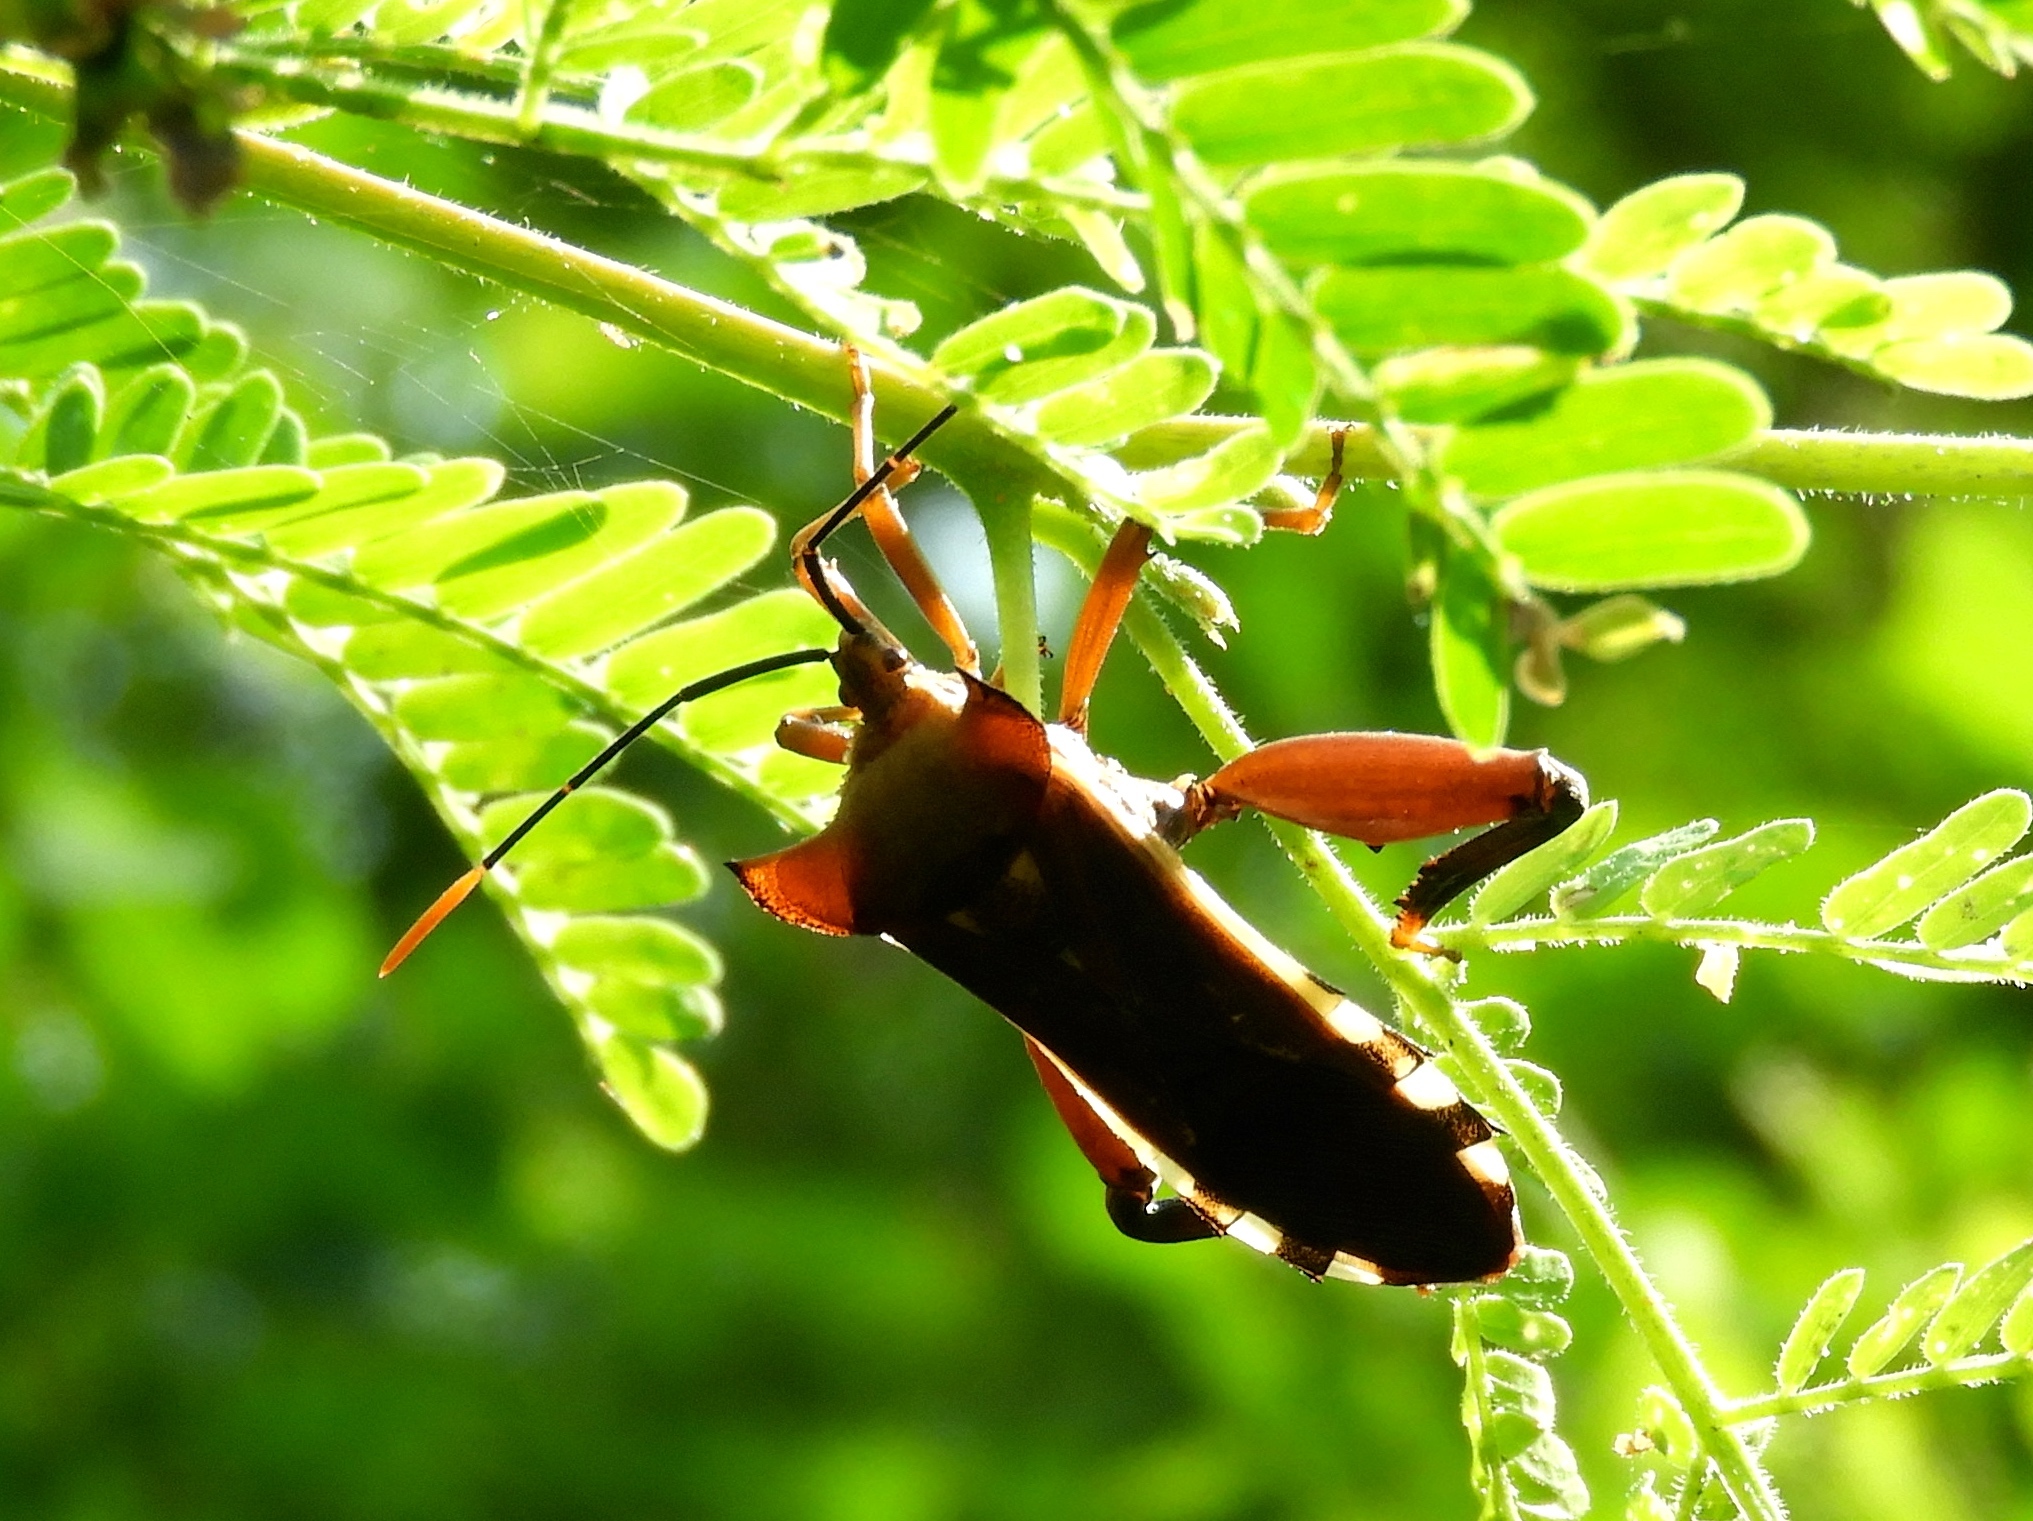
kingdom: Animalia
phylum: Arthropoda
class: Insecta
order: Hemiptera
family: Coreidae
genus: Mozena
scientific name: Mozena
